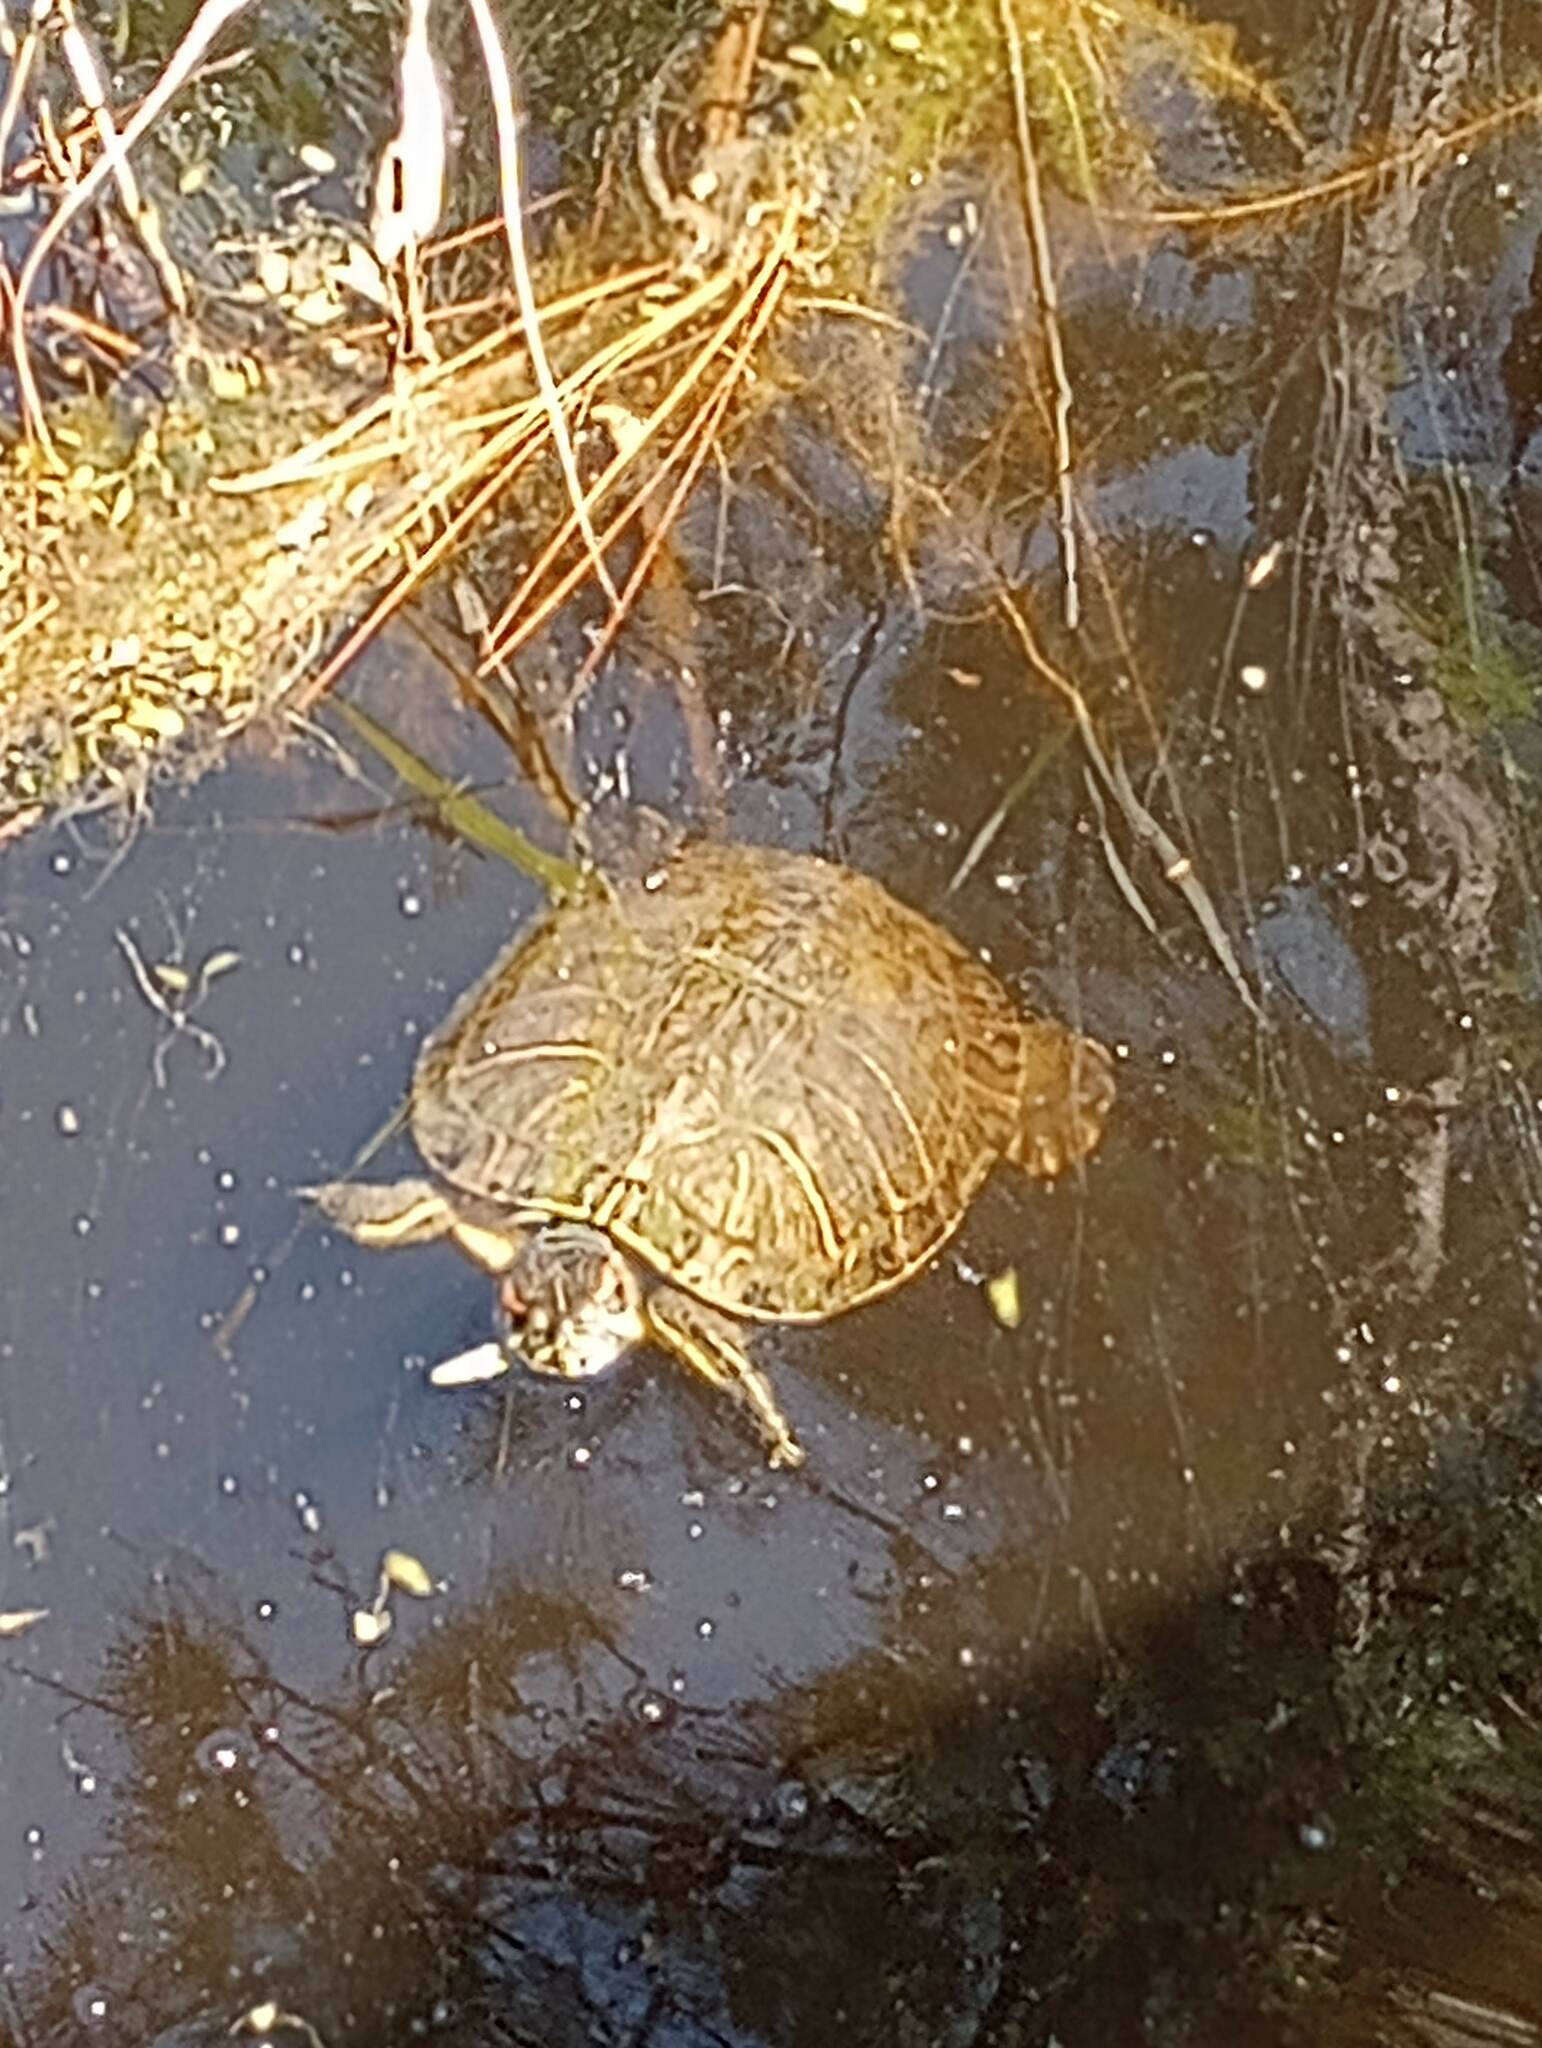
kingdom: Animalia
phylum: Chordata
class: Testudines
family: Emydidae
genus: Trachemys
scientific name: Trachemys scripta
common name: Slider
